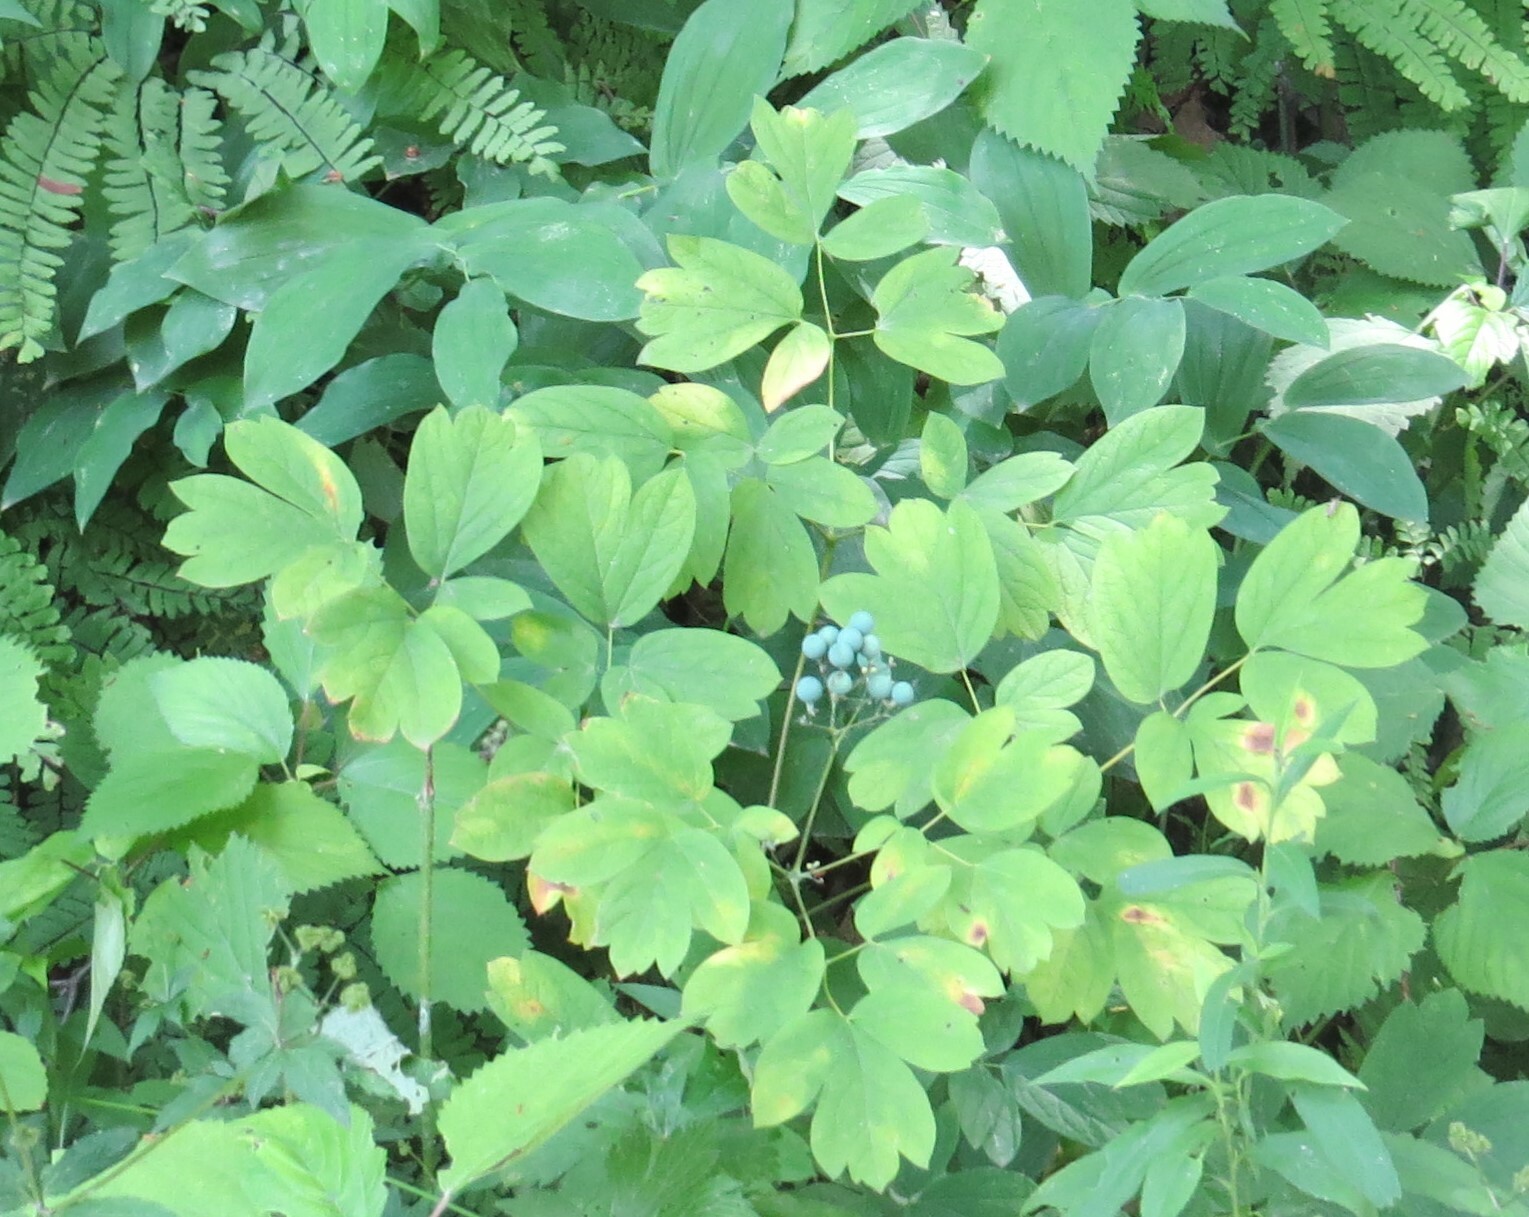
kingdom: Plantae
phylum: Tracheophyta
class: Magnoliopsida
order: Ranunculales
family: Berberidaceae
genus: Caulophyllum
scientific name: Caulophyllum thalictroides
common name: Blue cohosh
